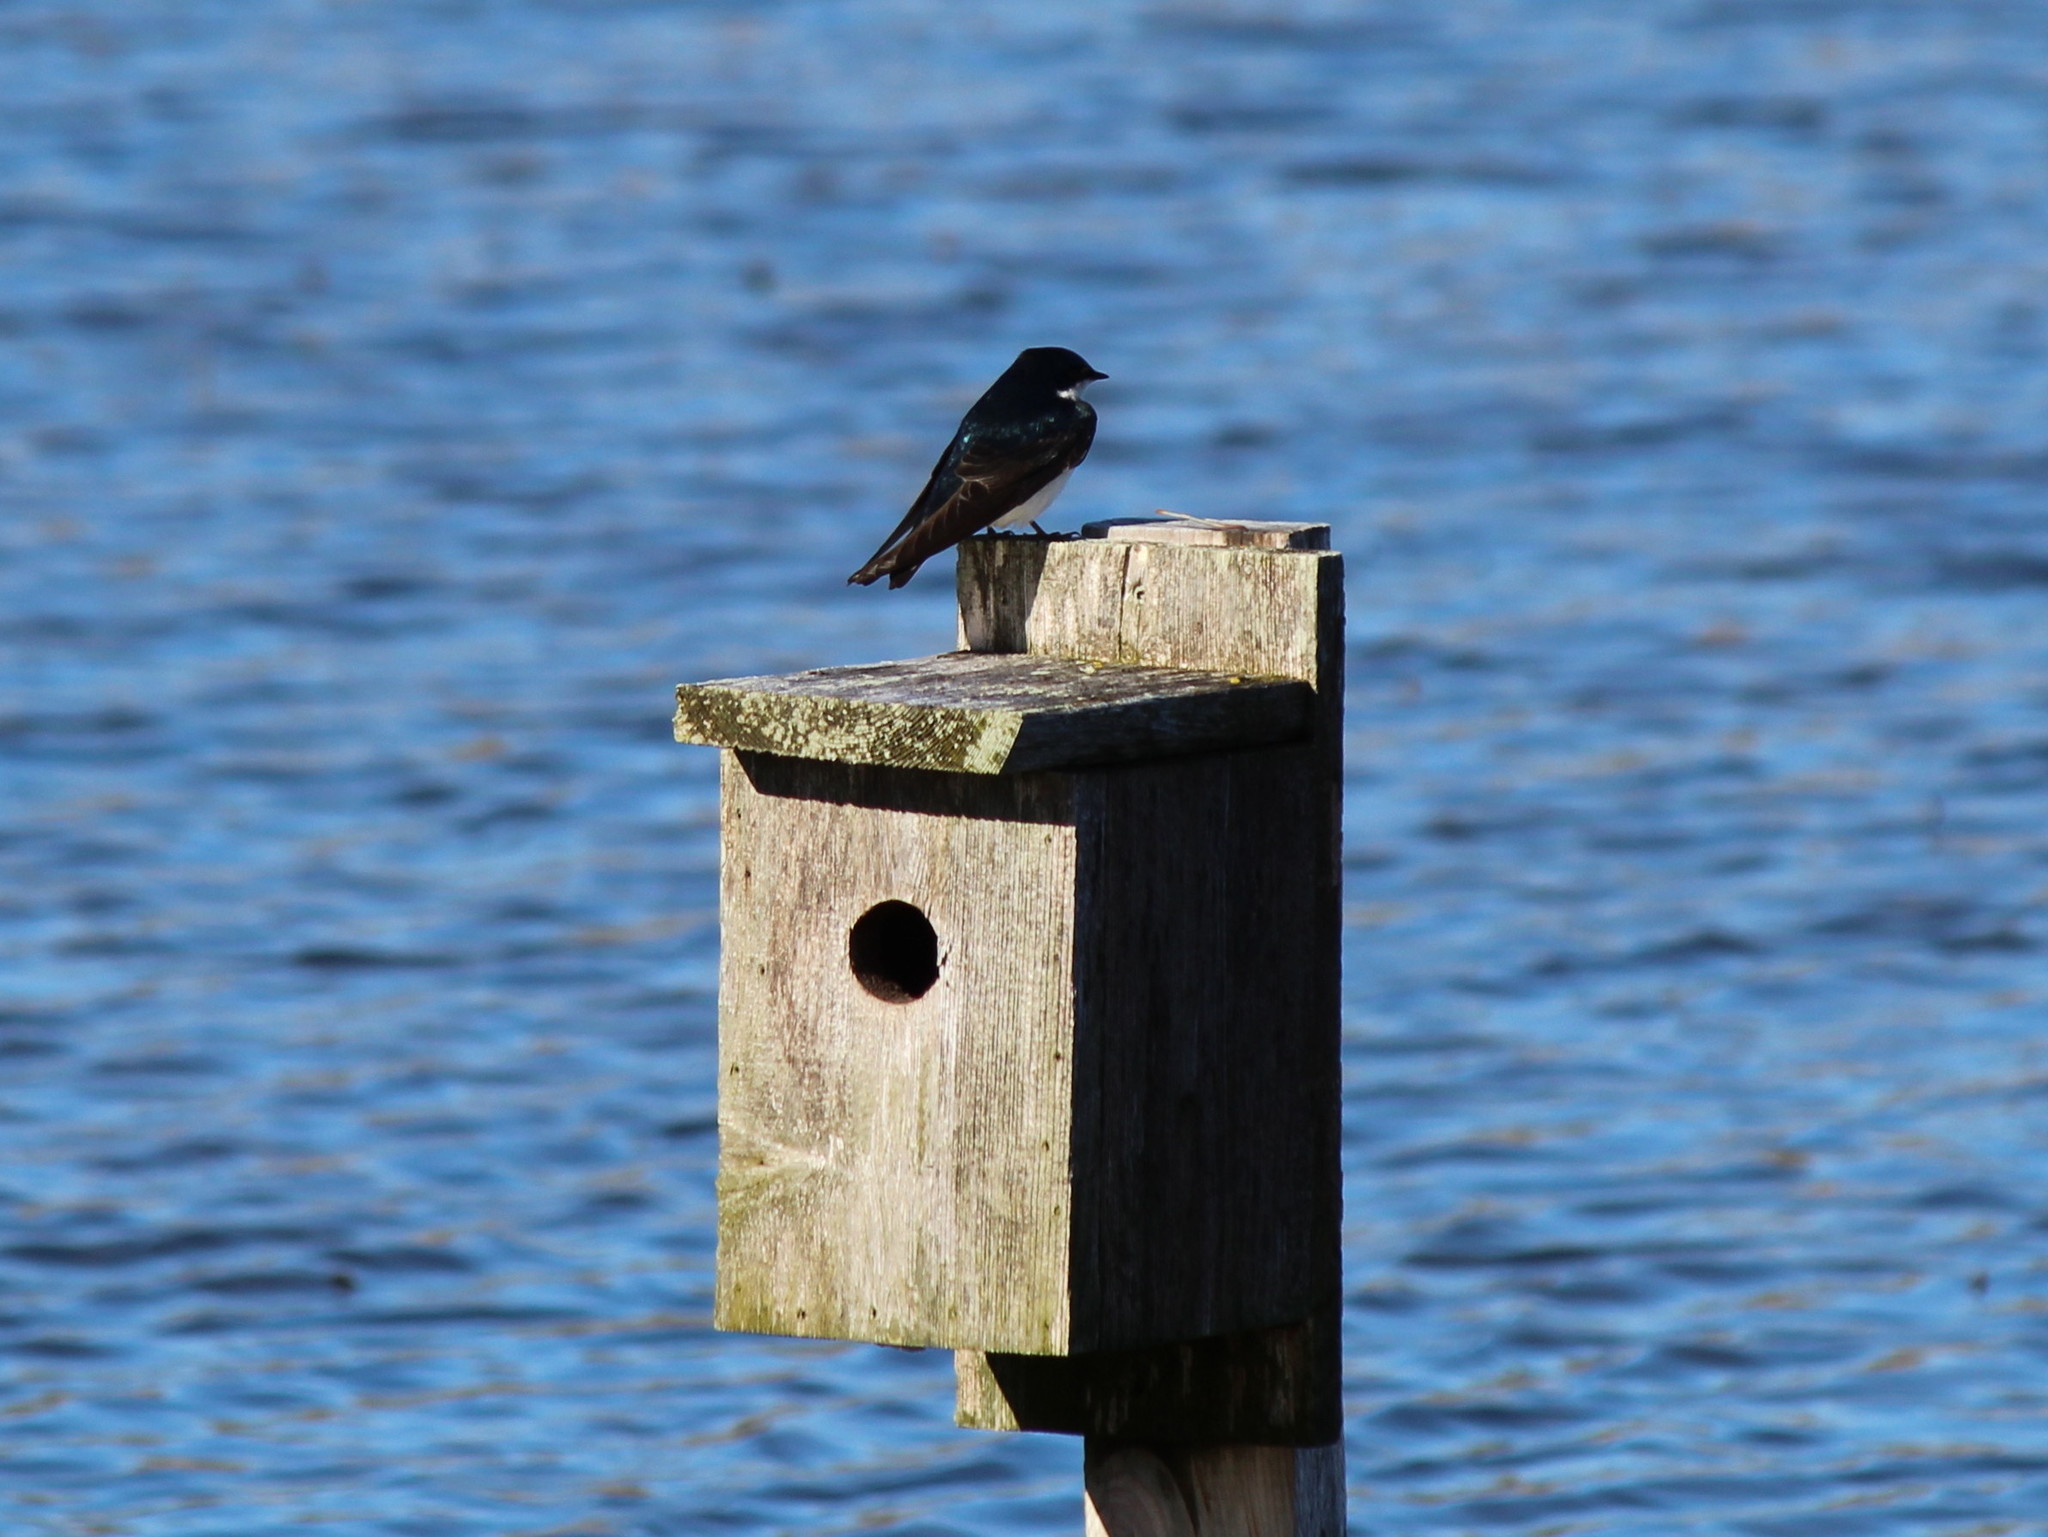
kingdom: Animalia
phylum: Chordata
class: Aves
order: Passeriformes
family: Hirundinidae
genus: Tachycineta
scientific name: Tachycineta bicolor
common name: Tree swallow
